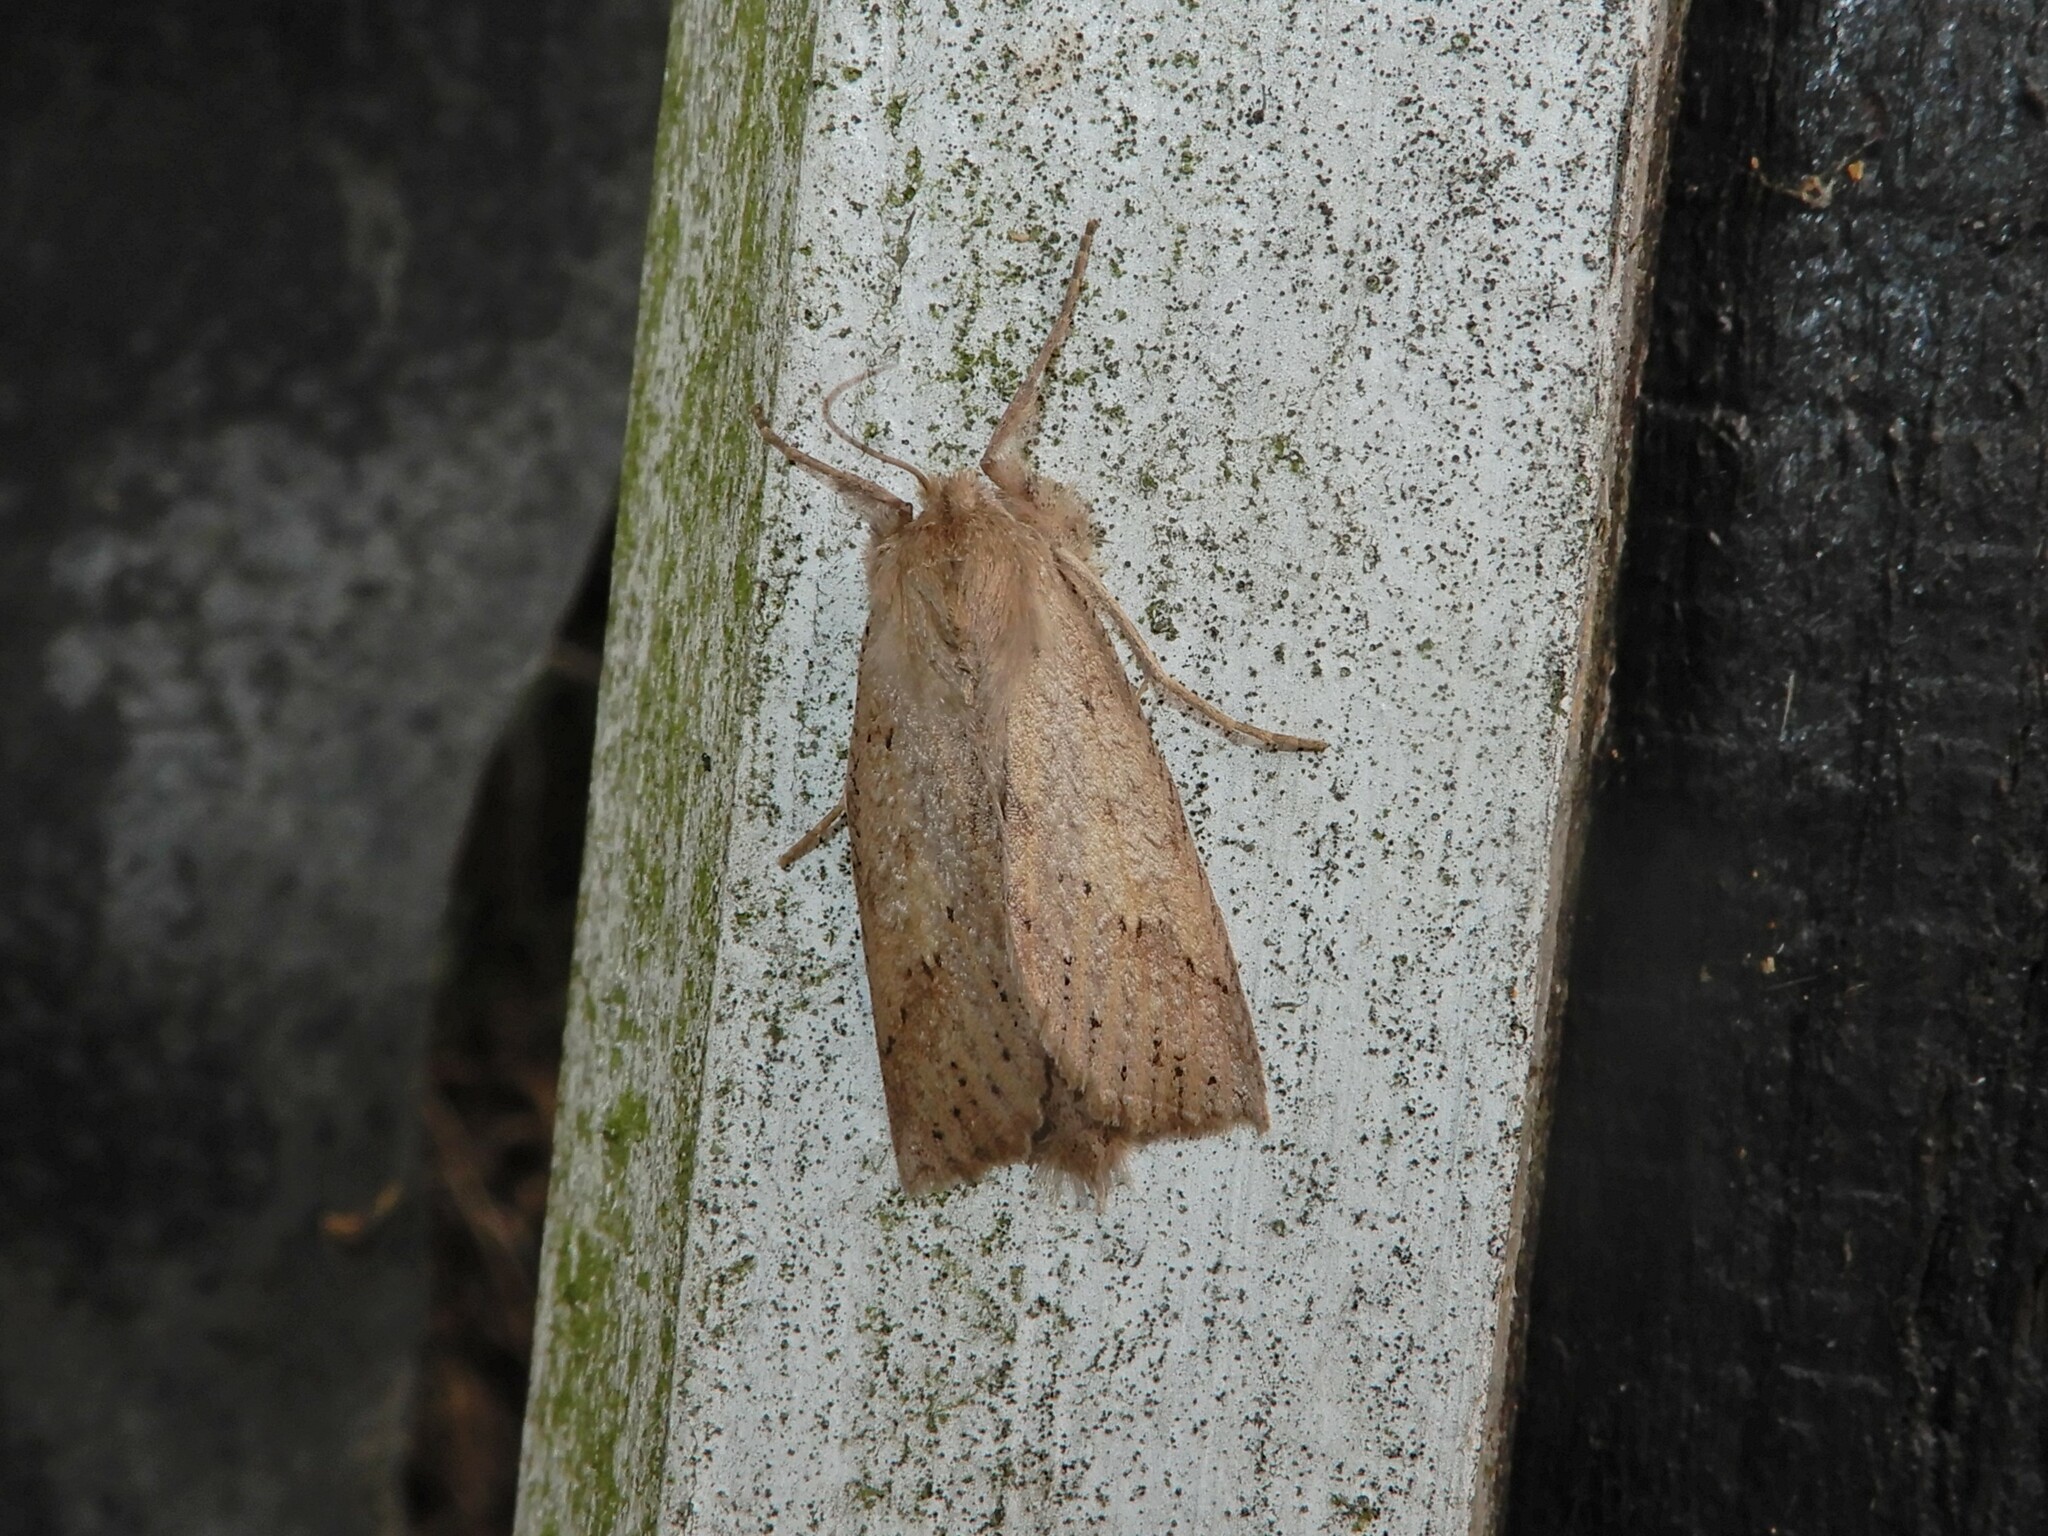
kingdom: Animalia
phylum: Arthropoda
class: Insecta
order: Lepidoptera
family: Geometridae
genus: Declana
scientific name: Declana leptomera
